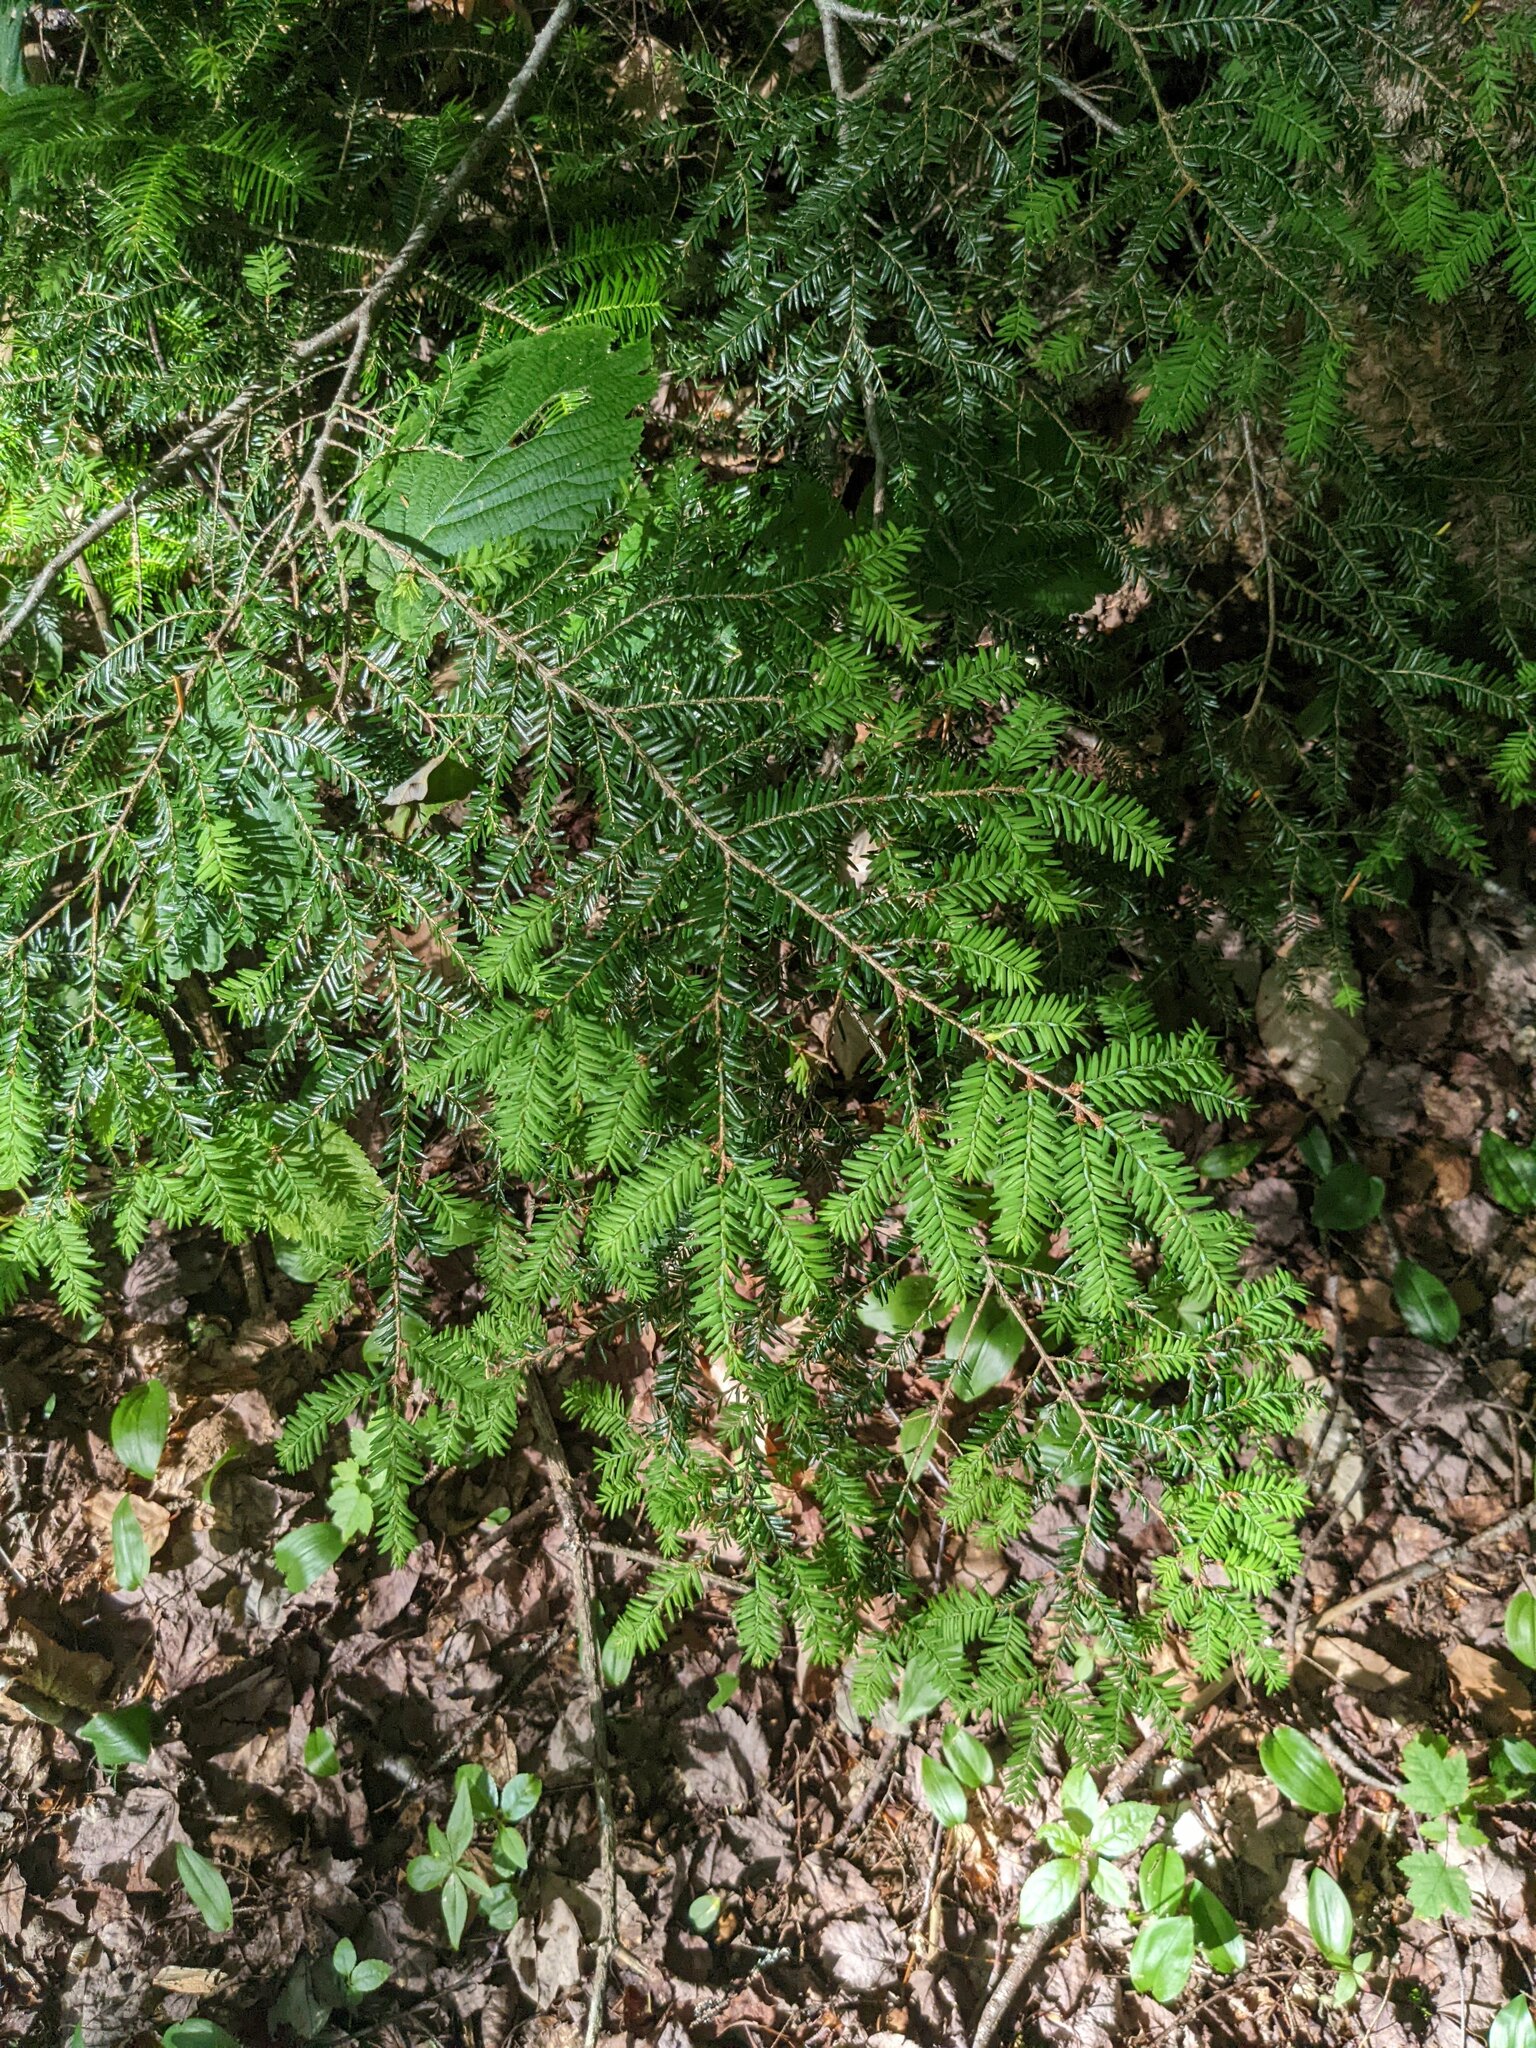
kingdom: Plantae
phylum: Tracheophyta
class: Pinopsida
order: Pinales
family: Pinaceae
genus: Tsuga
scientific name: Tsuga canadensis
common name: Eastern hemlock
